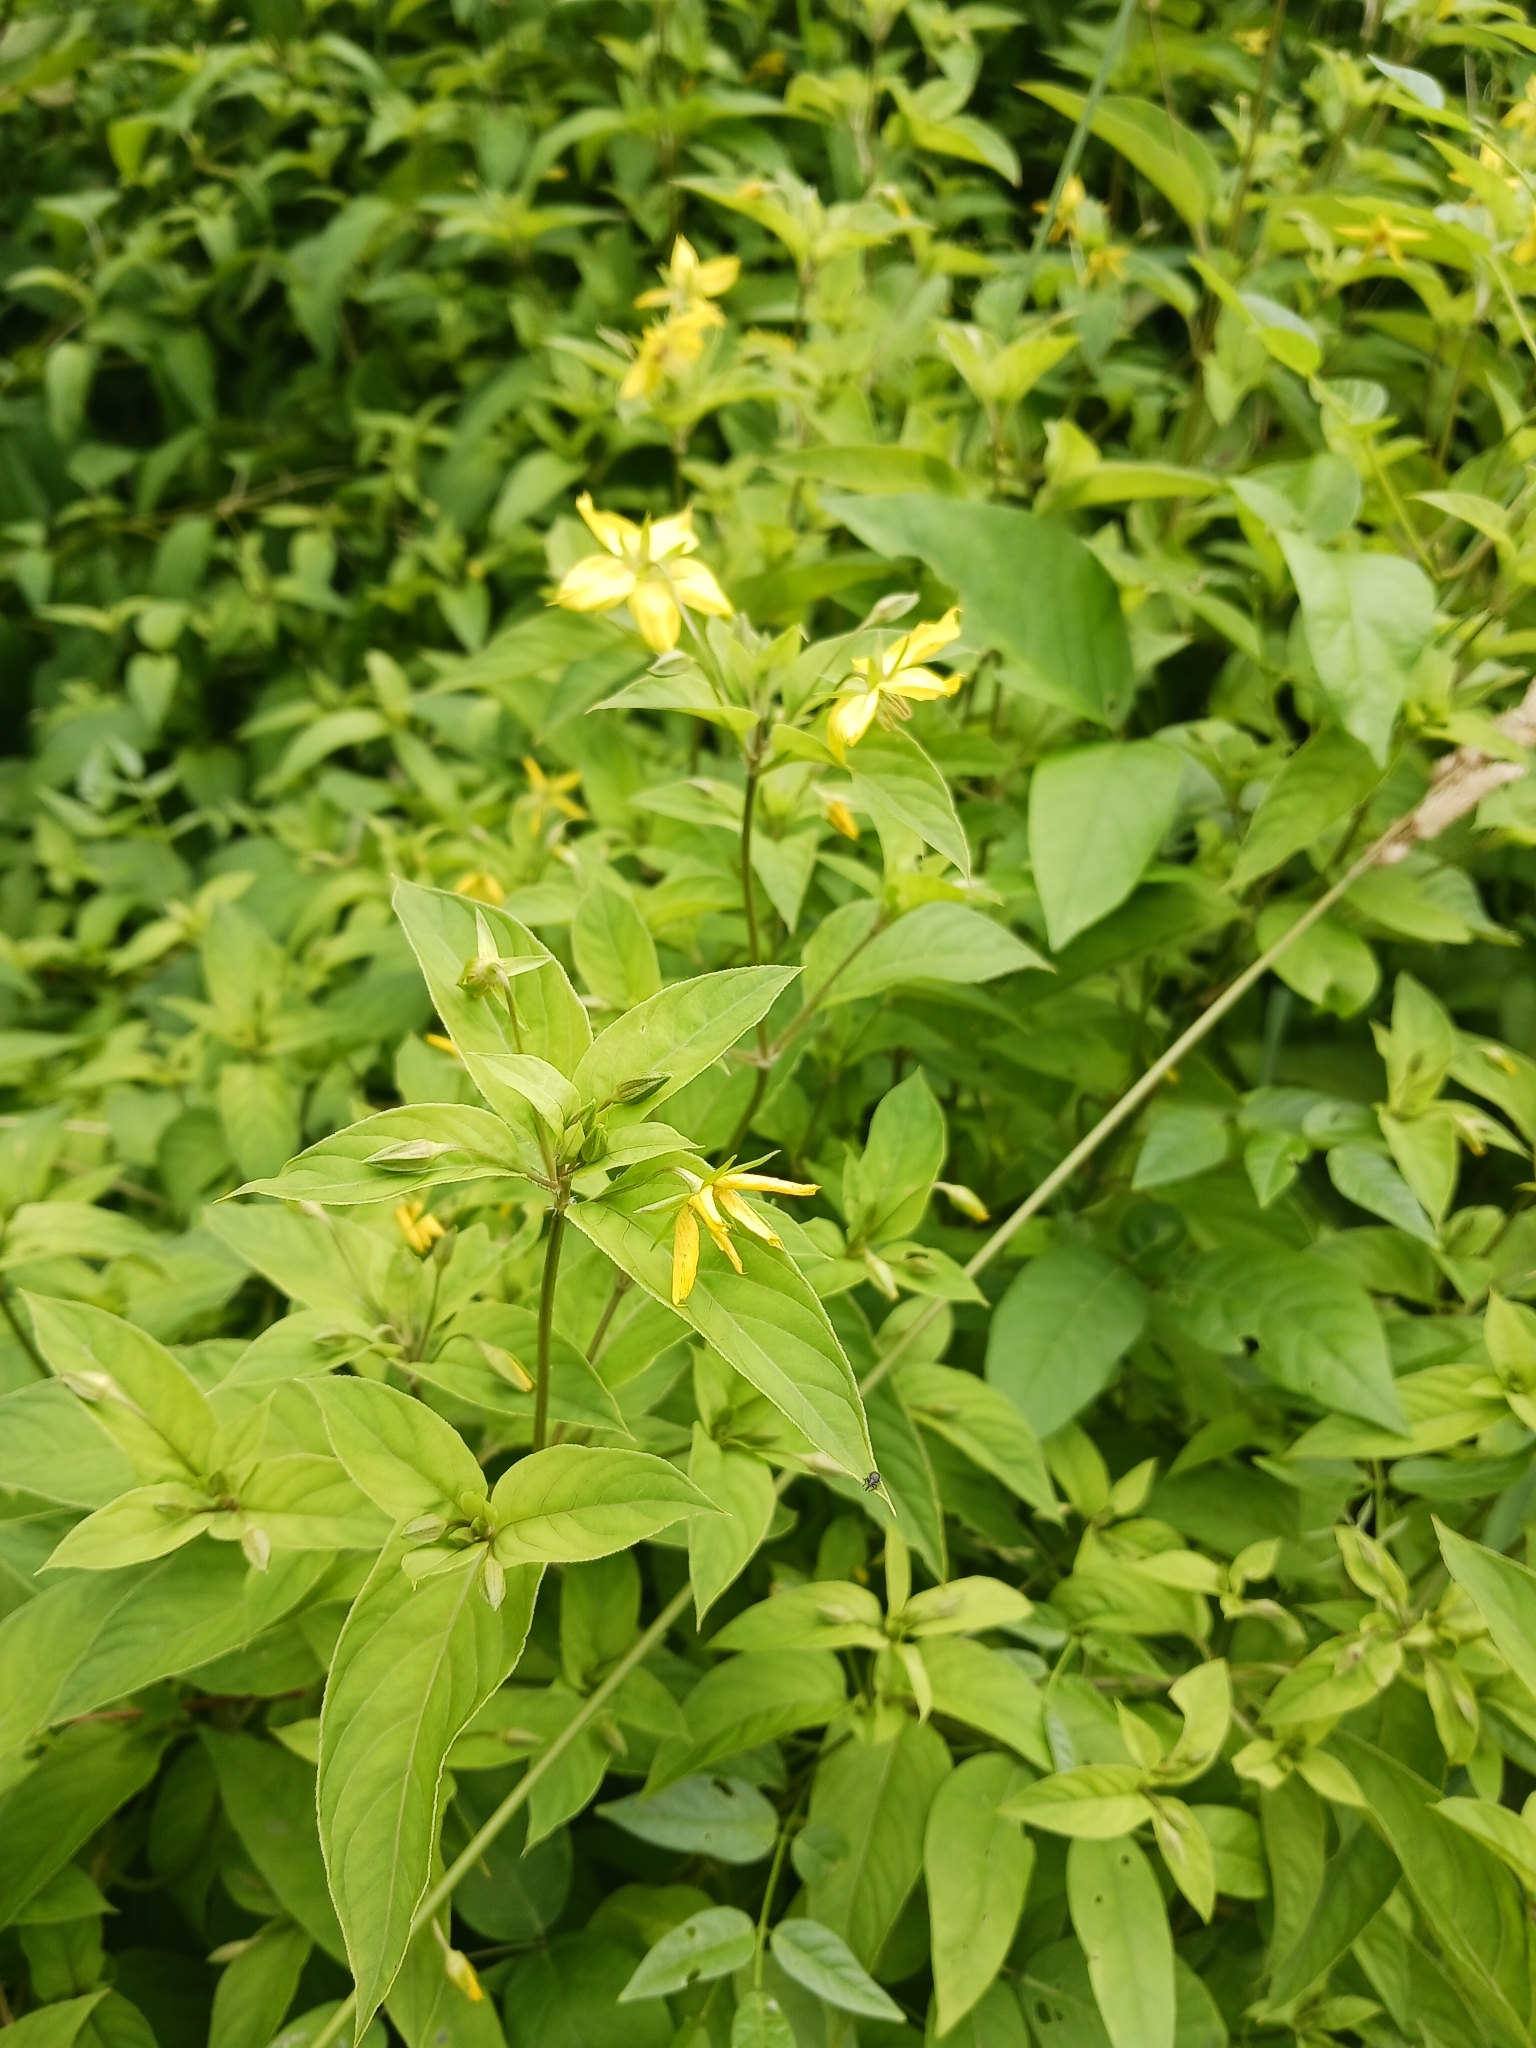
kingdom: Plantae
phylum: Tracheophyta
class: Magnoliopsida
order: Ericales
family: Primulaceae
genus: Lysimachia
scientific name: Lysimachia ciliata
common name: Fringed loosestrife
